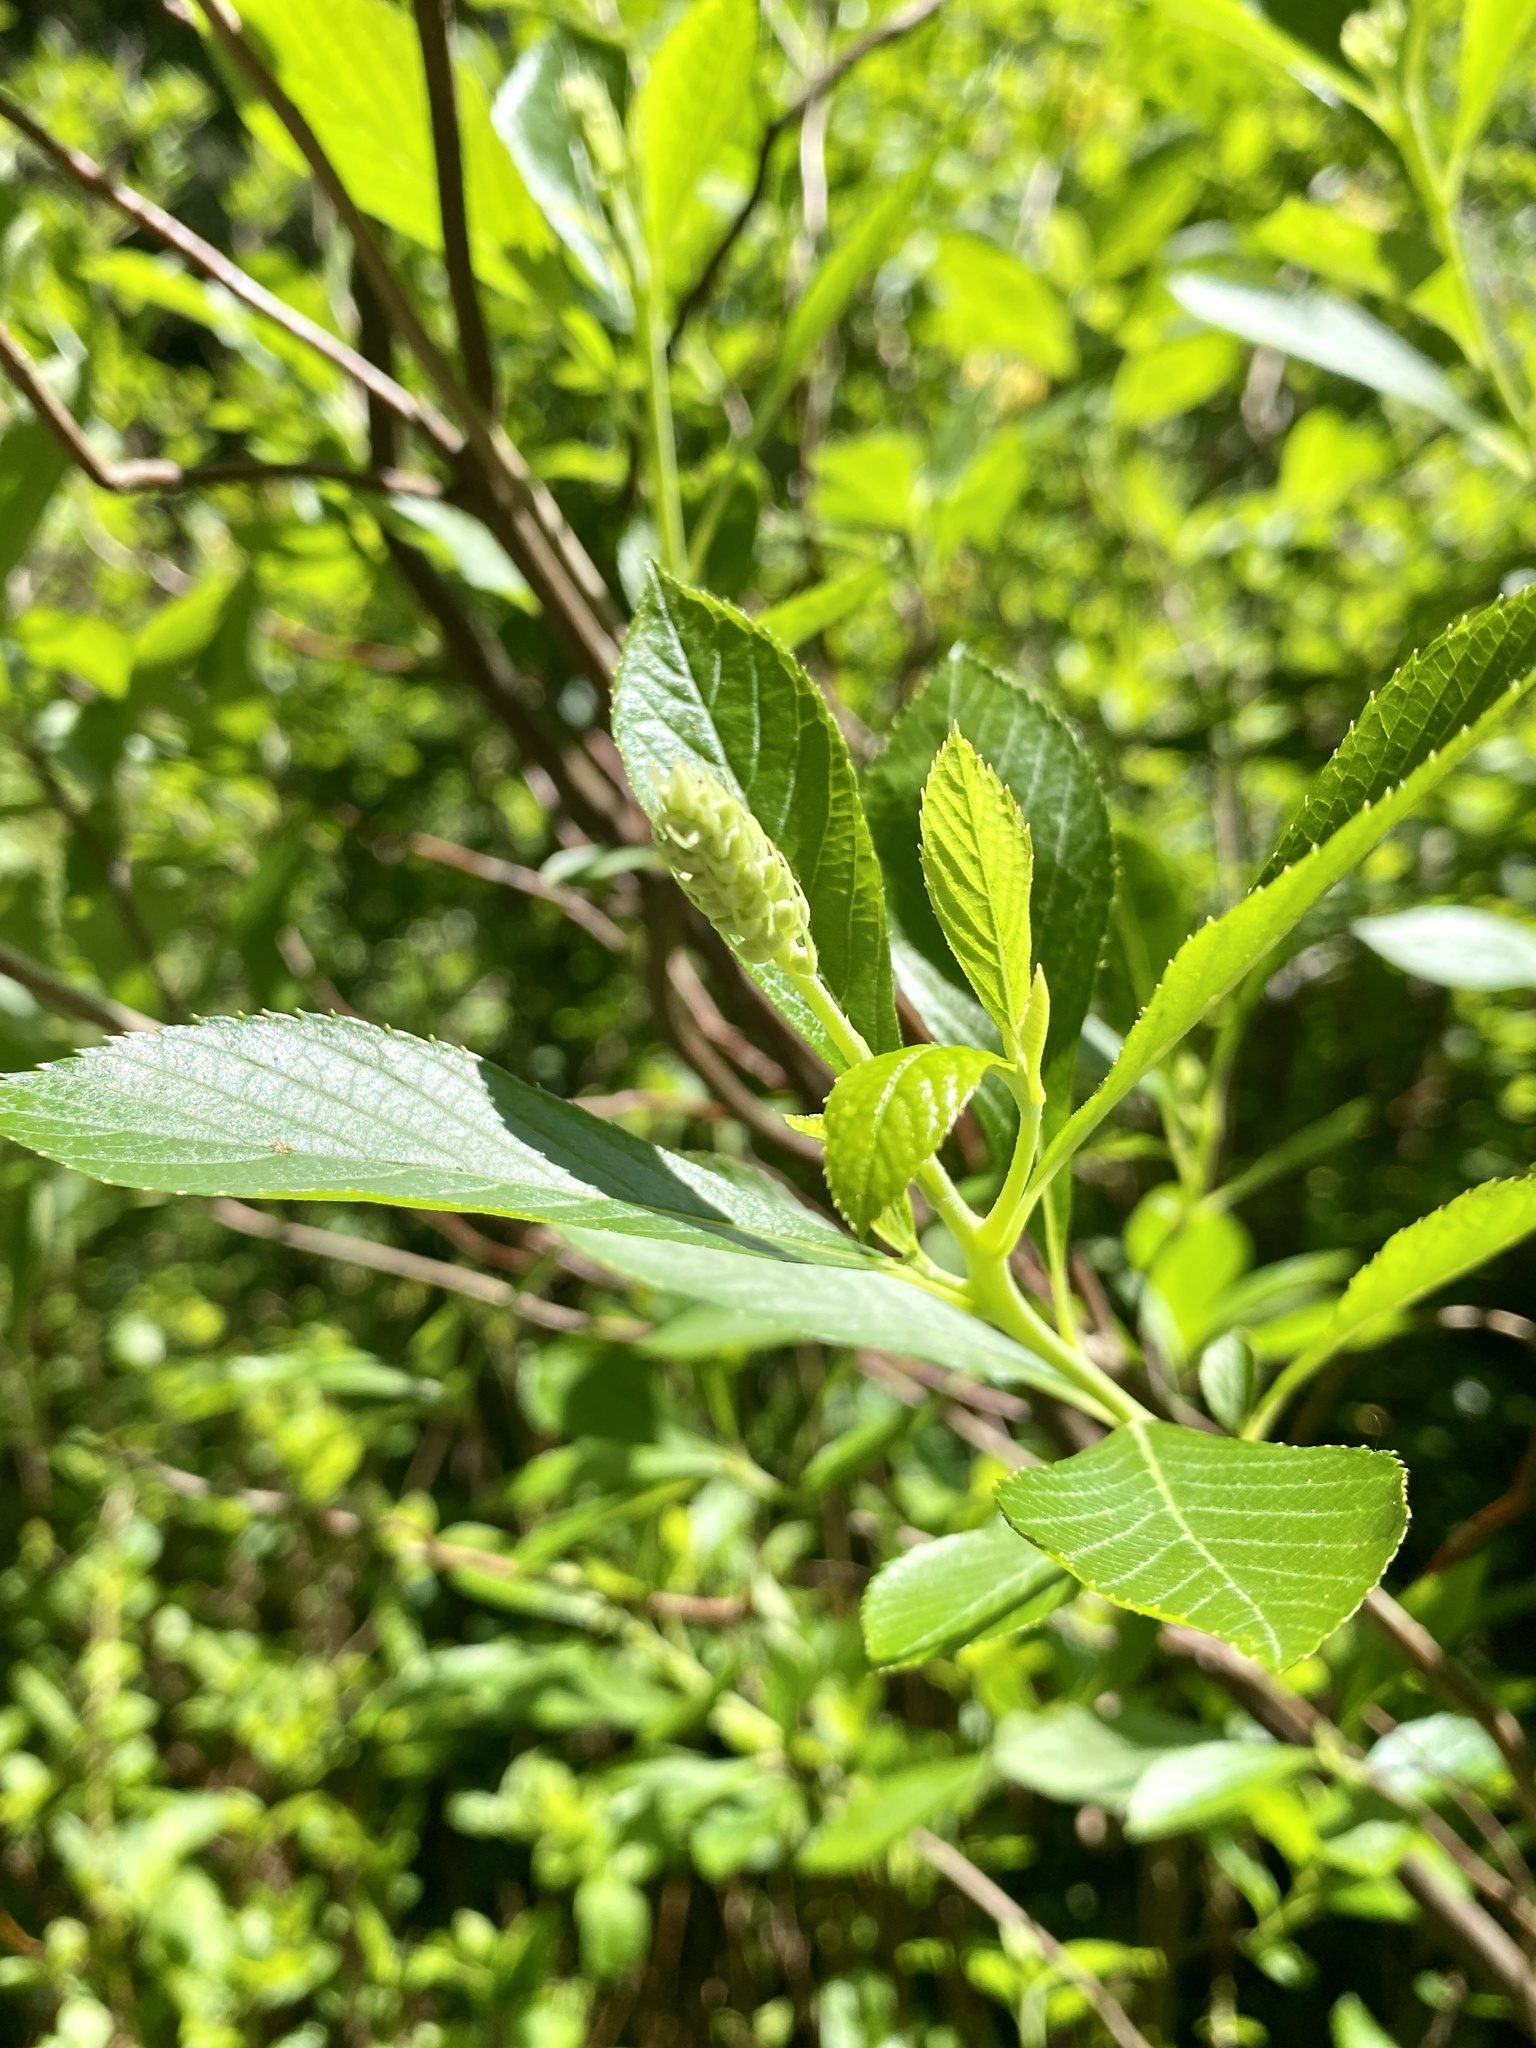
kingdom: Plantae
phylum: Tracheophyta
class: Magnoliopsida
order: Ericales
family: Clethraceae
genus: Clethra
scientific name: Clethra alnifolia
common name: Sweet pepperbush
